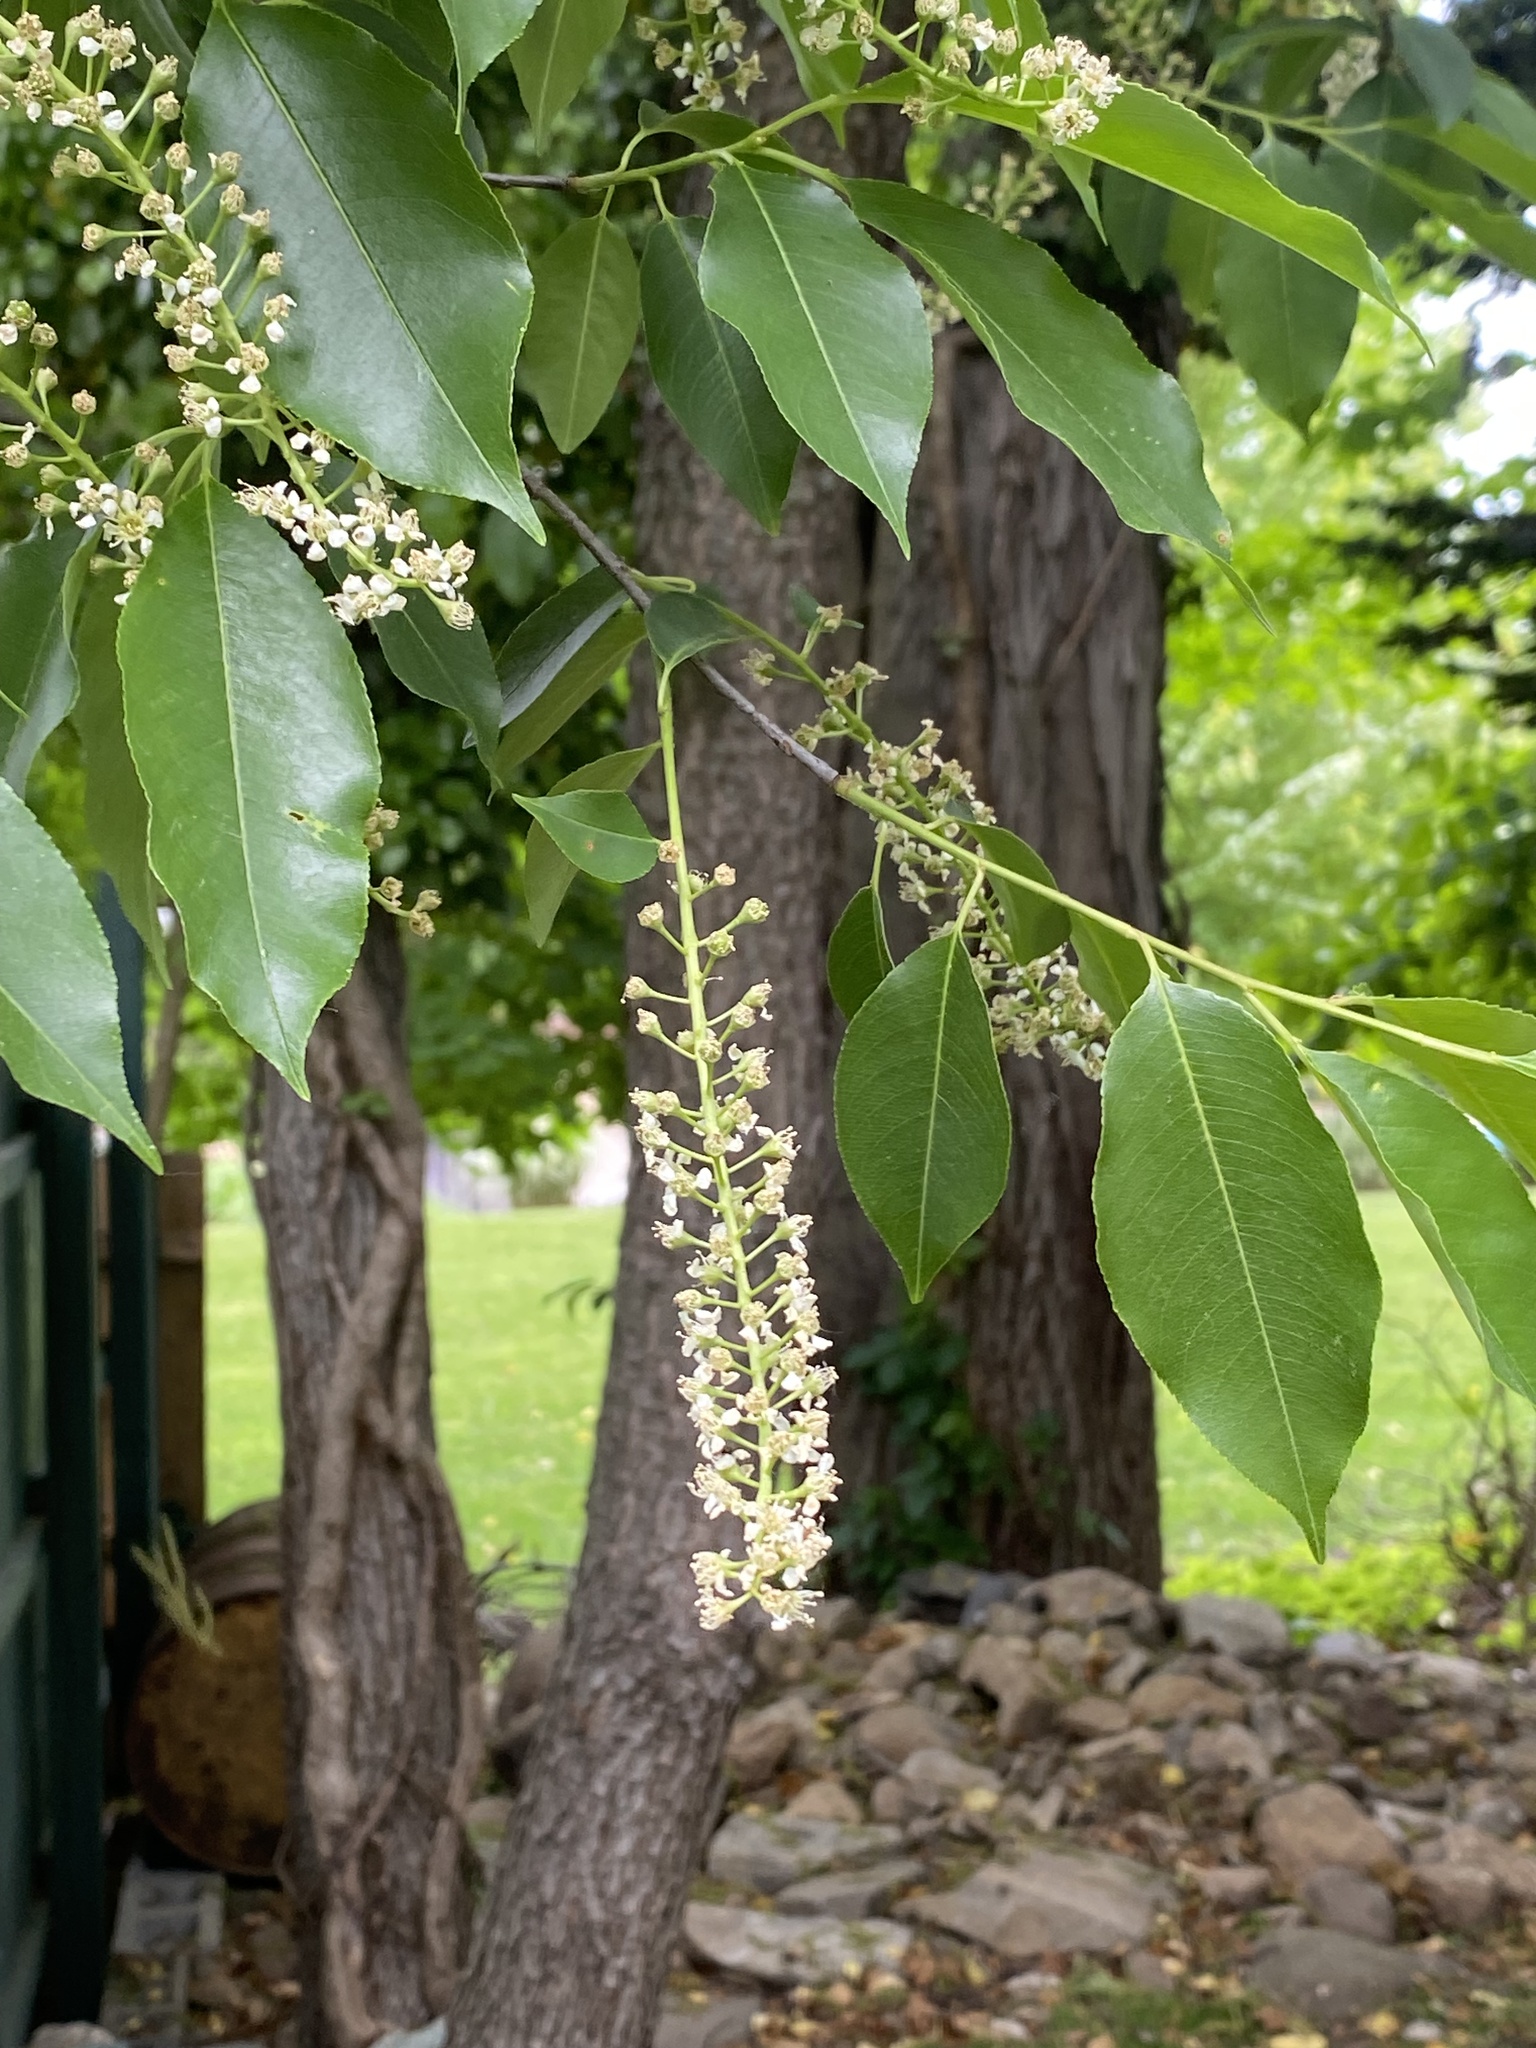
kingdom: Plantae
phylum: Tracheophyta
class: Magnoliopsida
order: Rosales
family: Rosaceae
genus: Prunus
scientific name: Prunus serotina
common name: Black cherry
